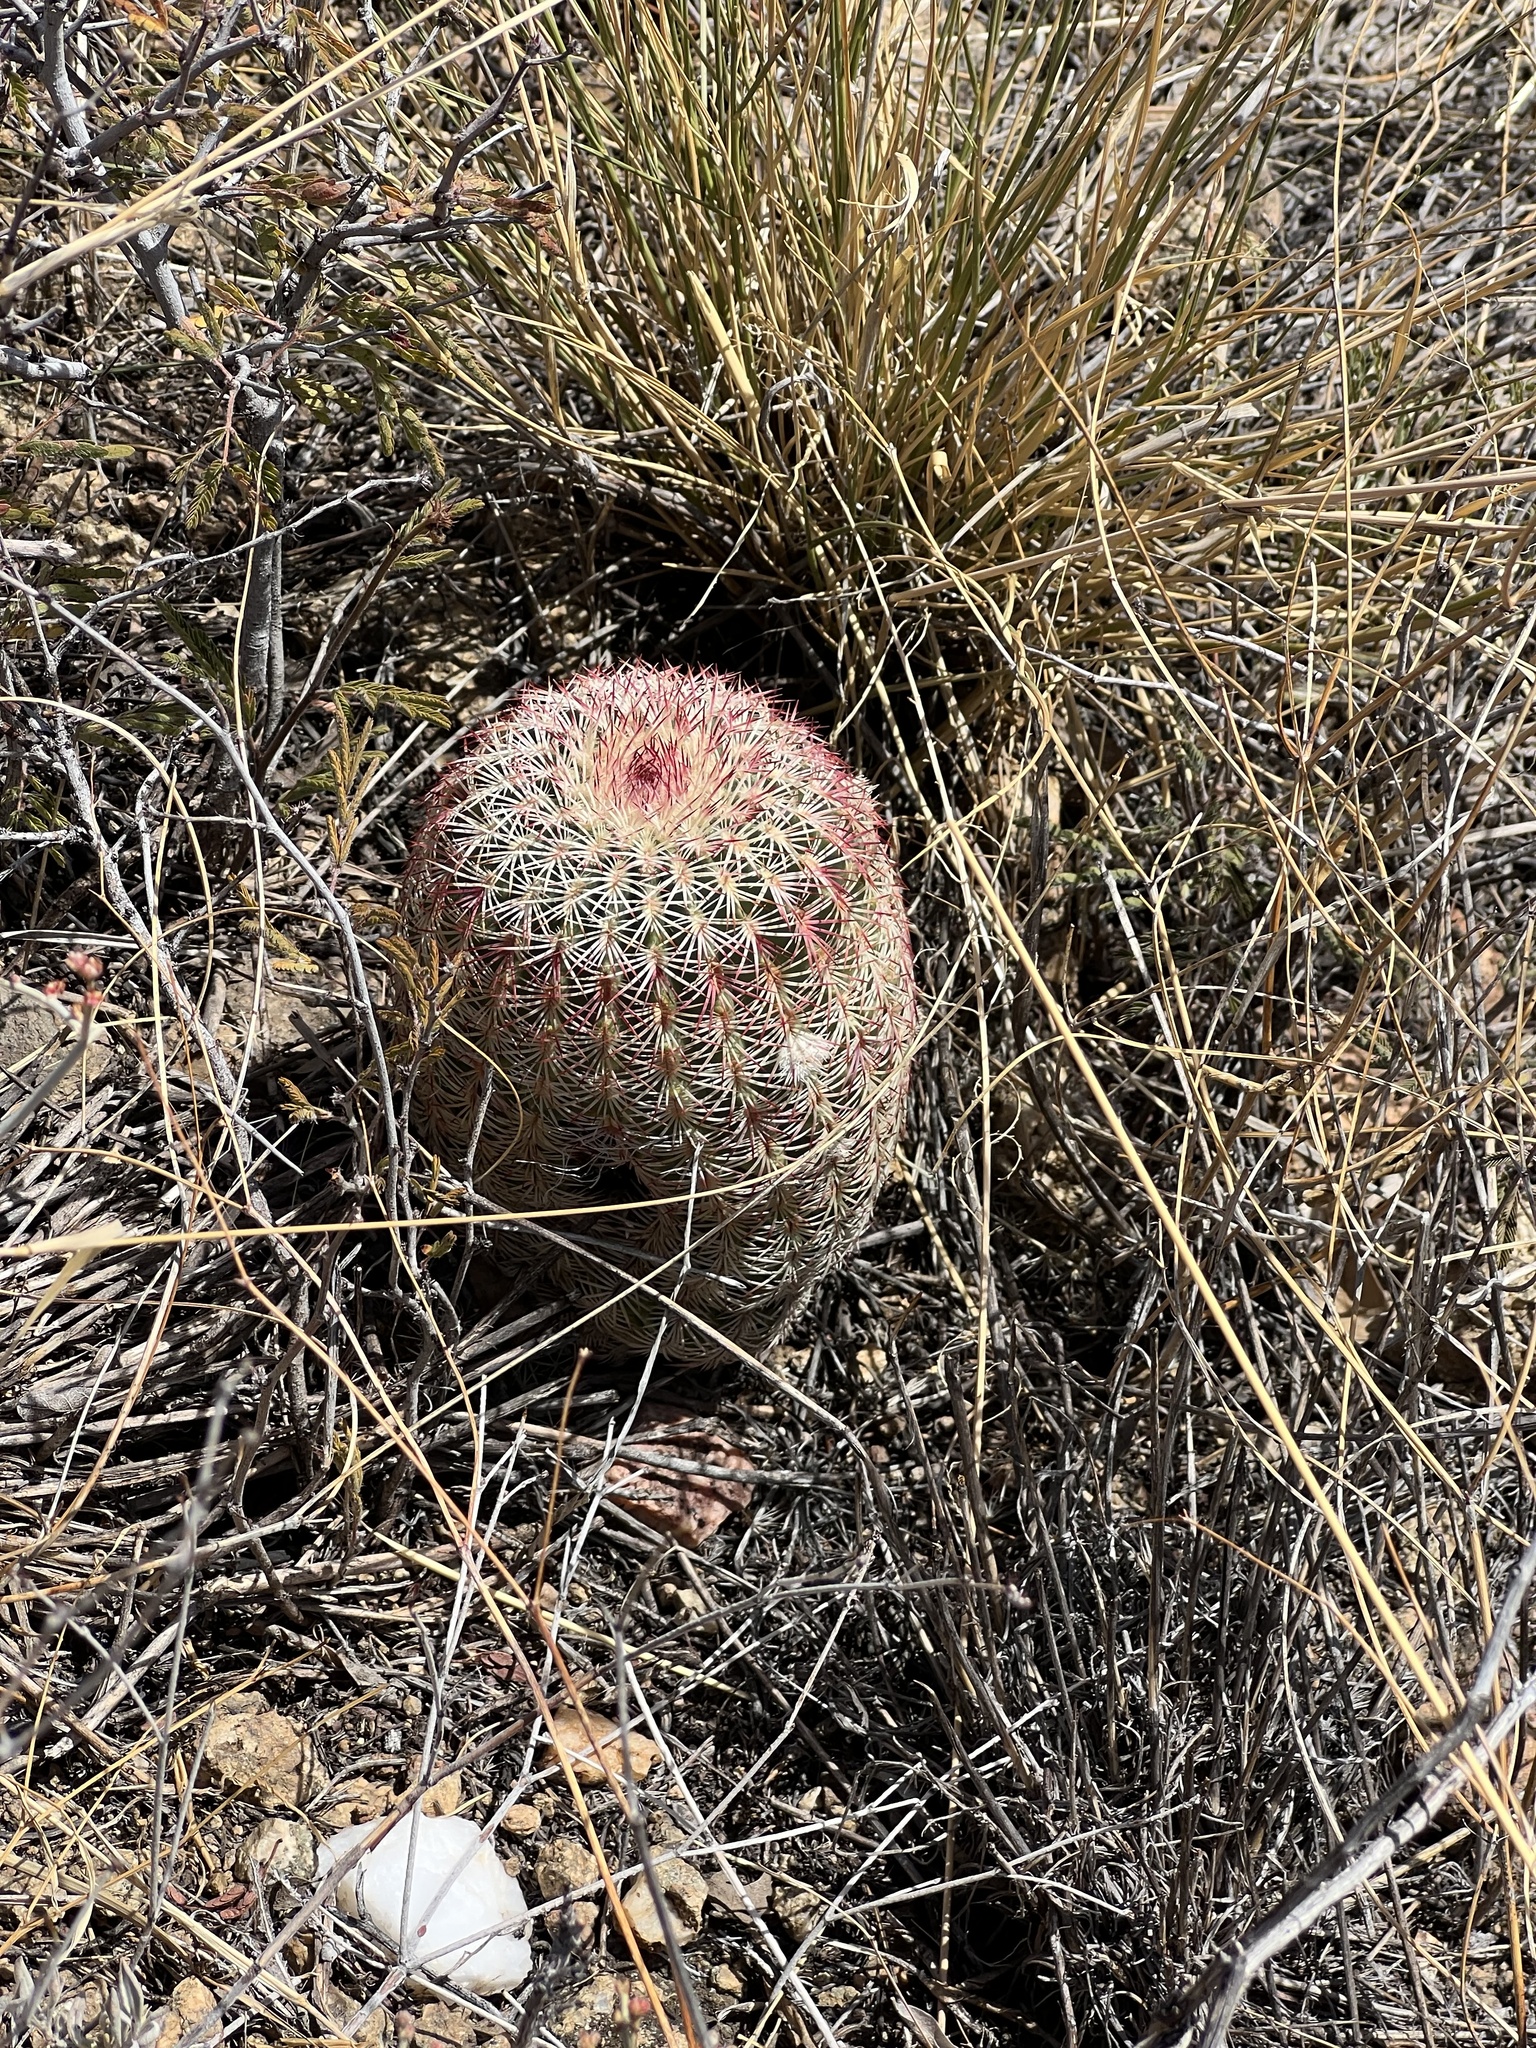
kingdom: Plantae
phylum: Tracheophyta
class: Magnoliopsida
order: Caryophyllales
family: Cactaceae
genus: Echinocereus
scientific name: Echinocereus rigidissimus
